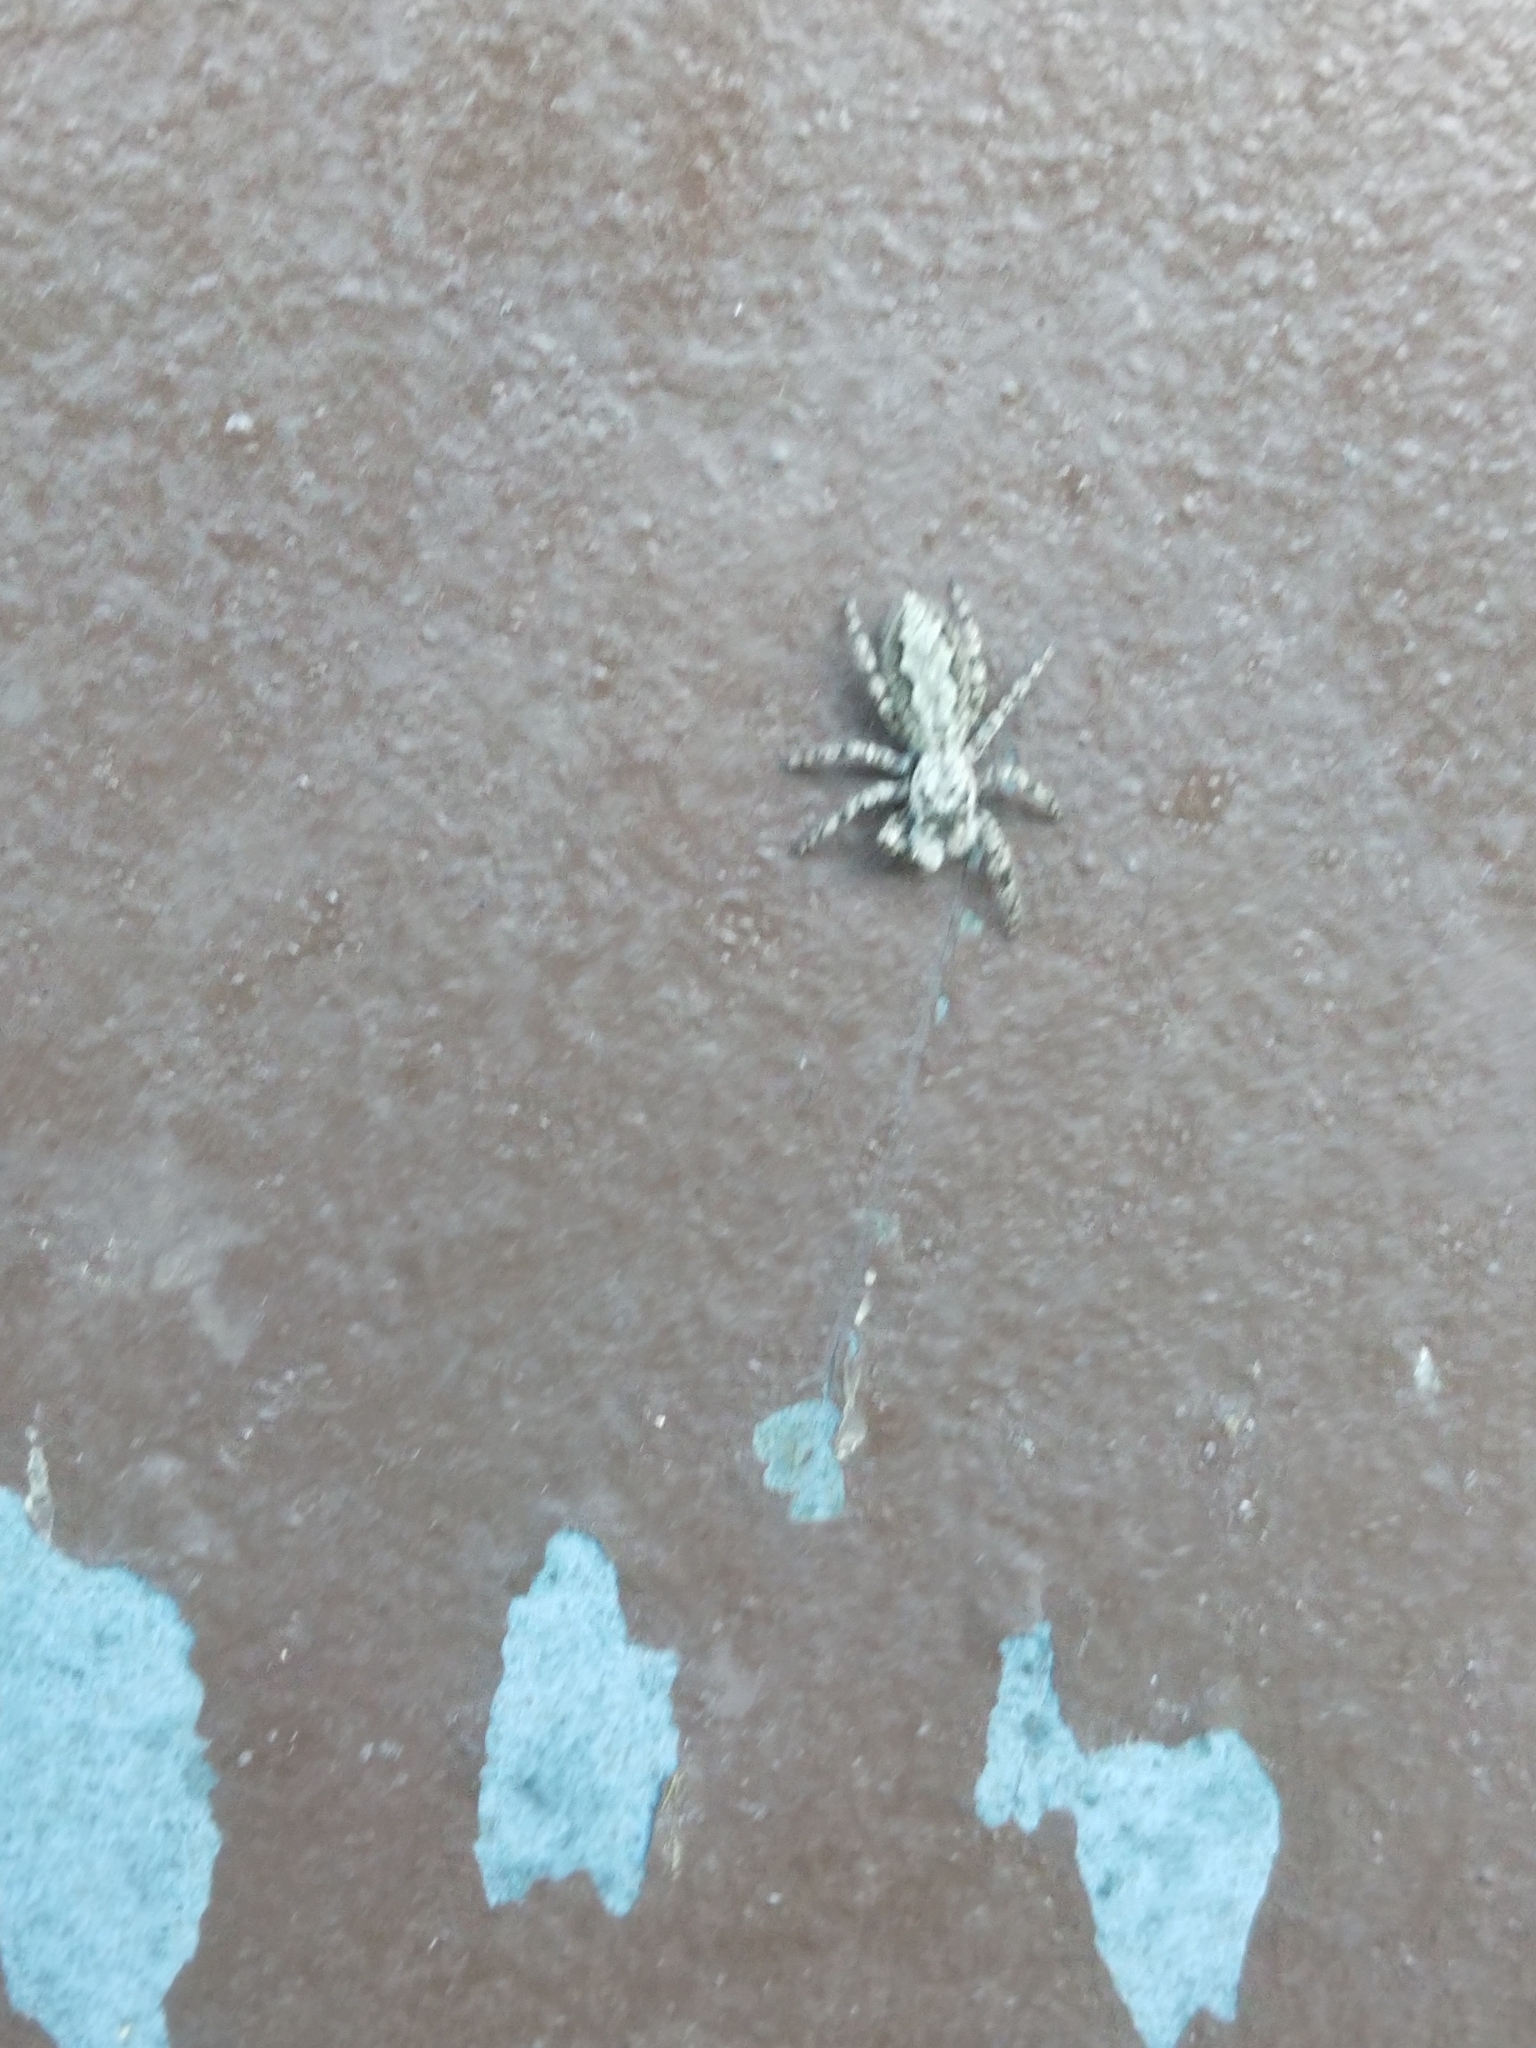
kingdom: Animalia
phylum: Arthropoda
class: Arachnida
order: Araneae
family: Salticidae
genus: Platycryptus
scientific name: Platycryptus undatus
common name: Tan jumping spider
